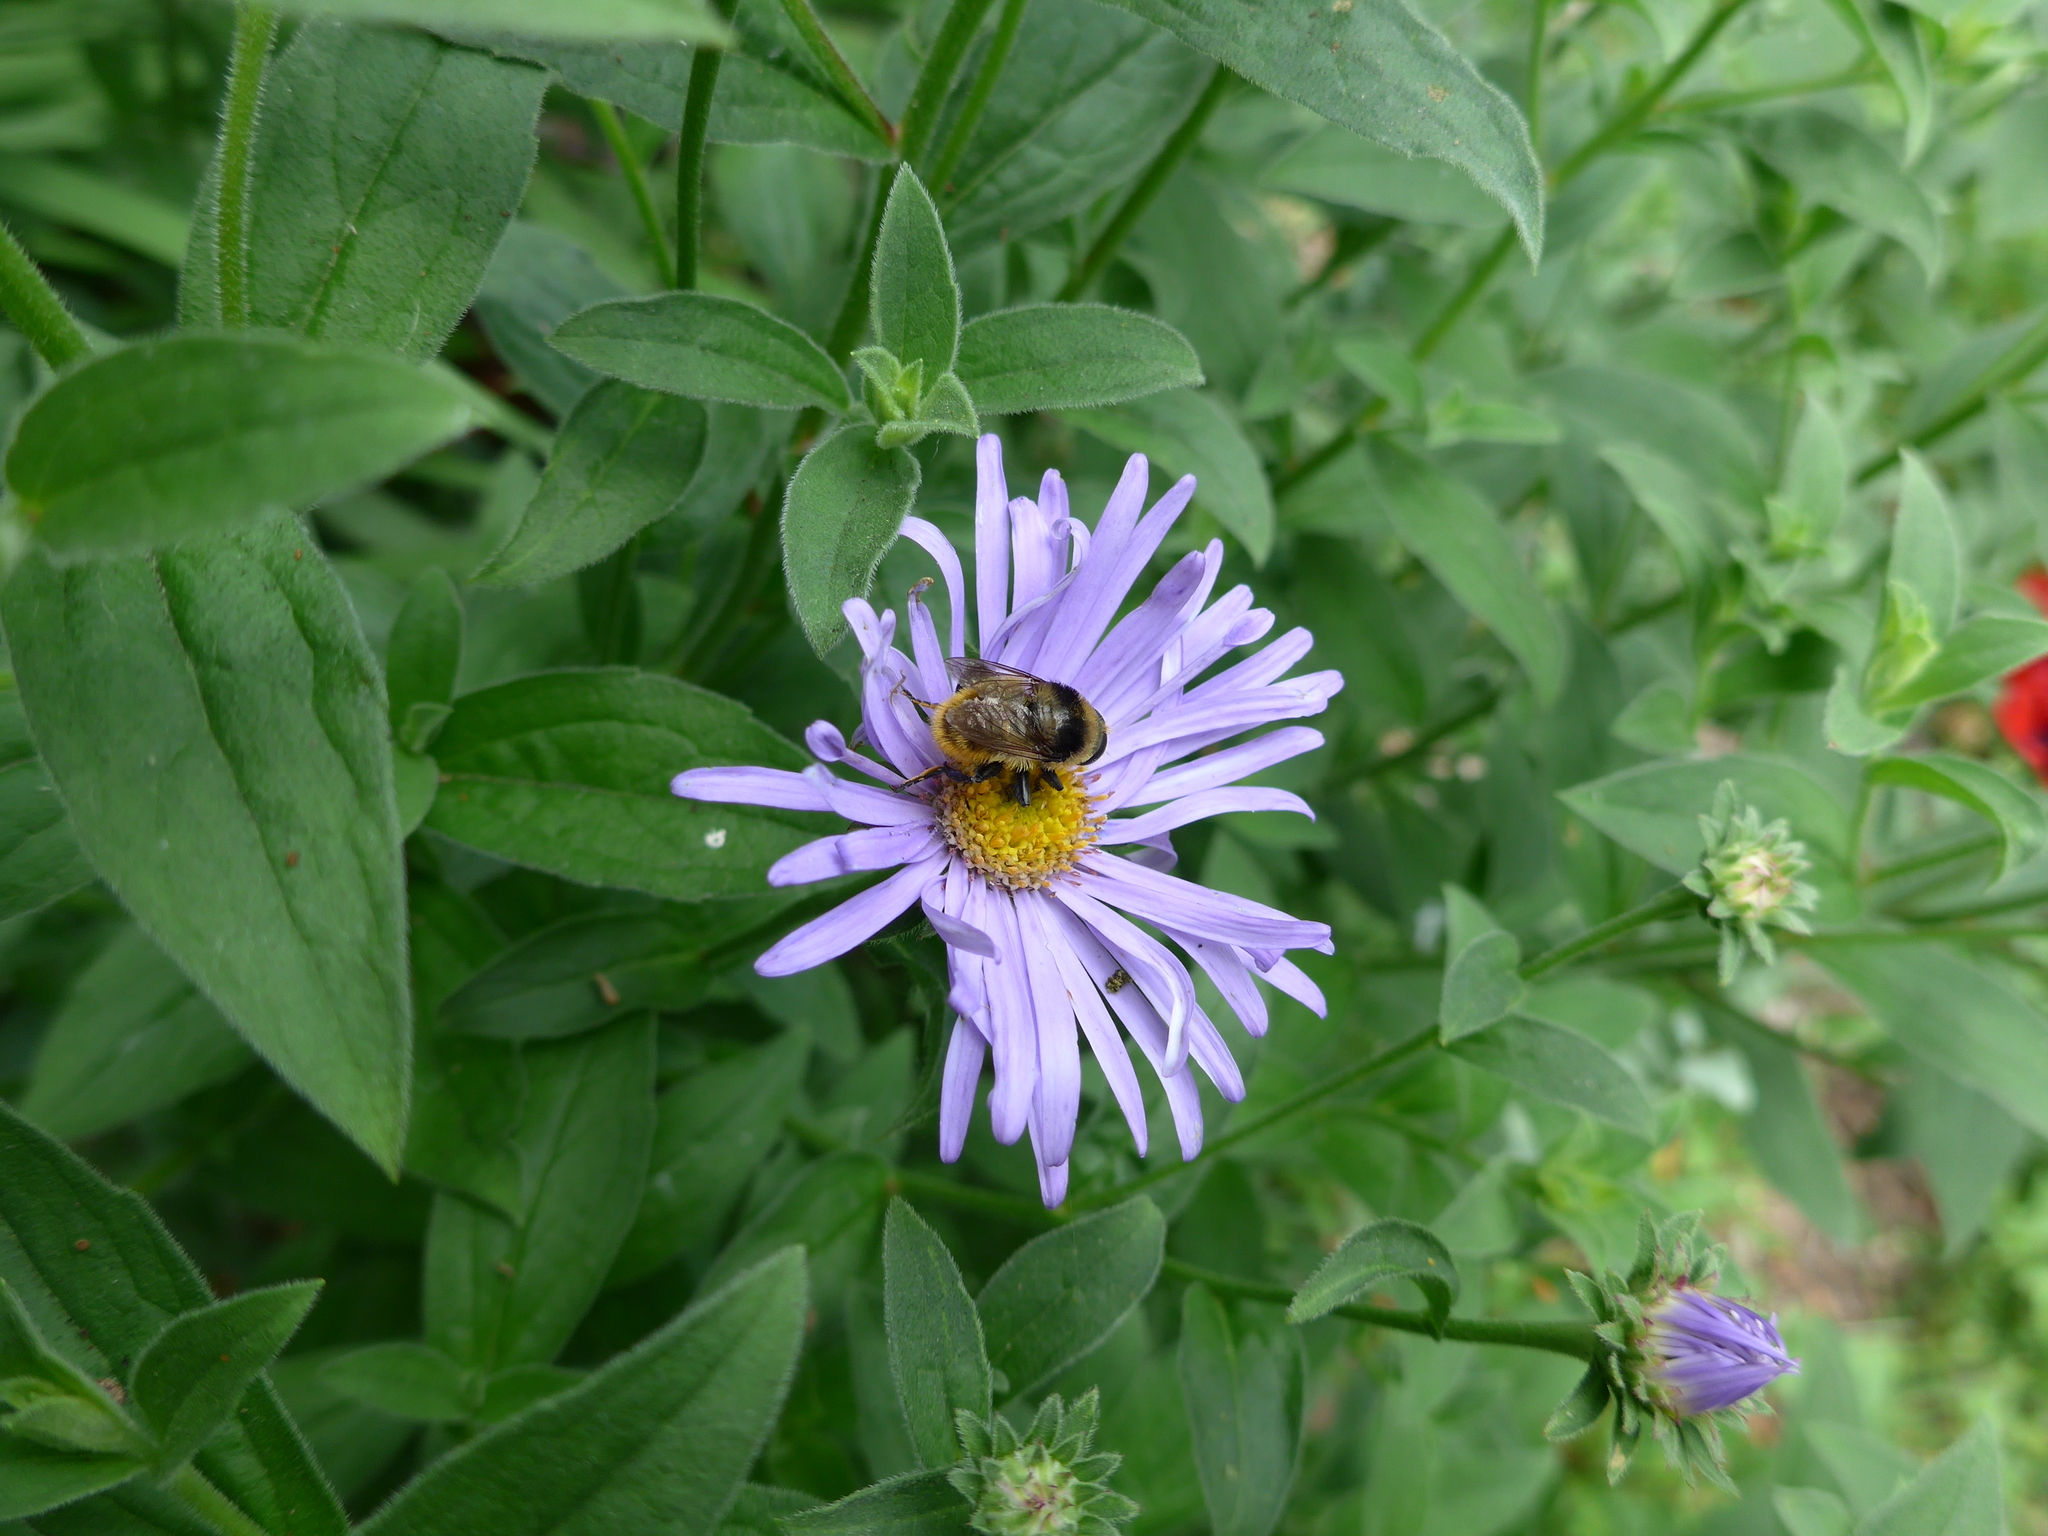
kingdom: Animalia
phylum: Arthropoda
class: Insecta
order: Diptera
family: Syrphidae
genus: Merodon
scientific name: Merodon equestris
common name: Greater bulb-fly
